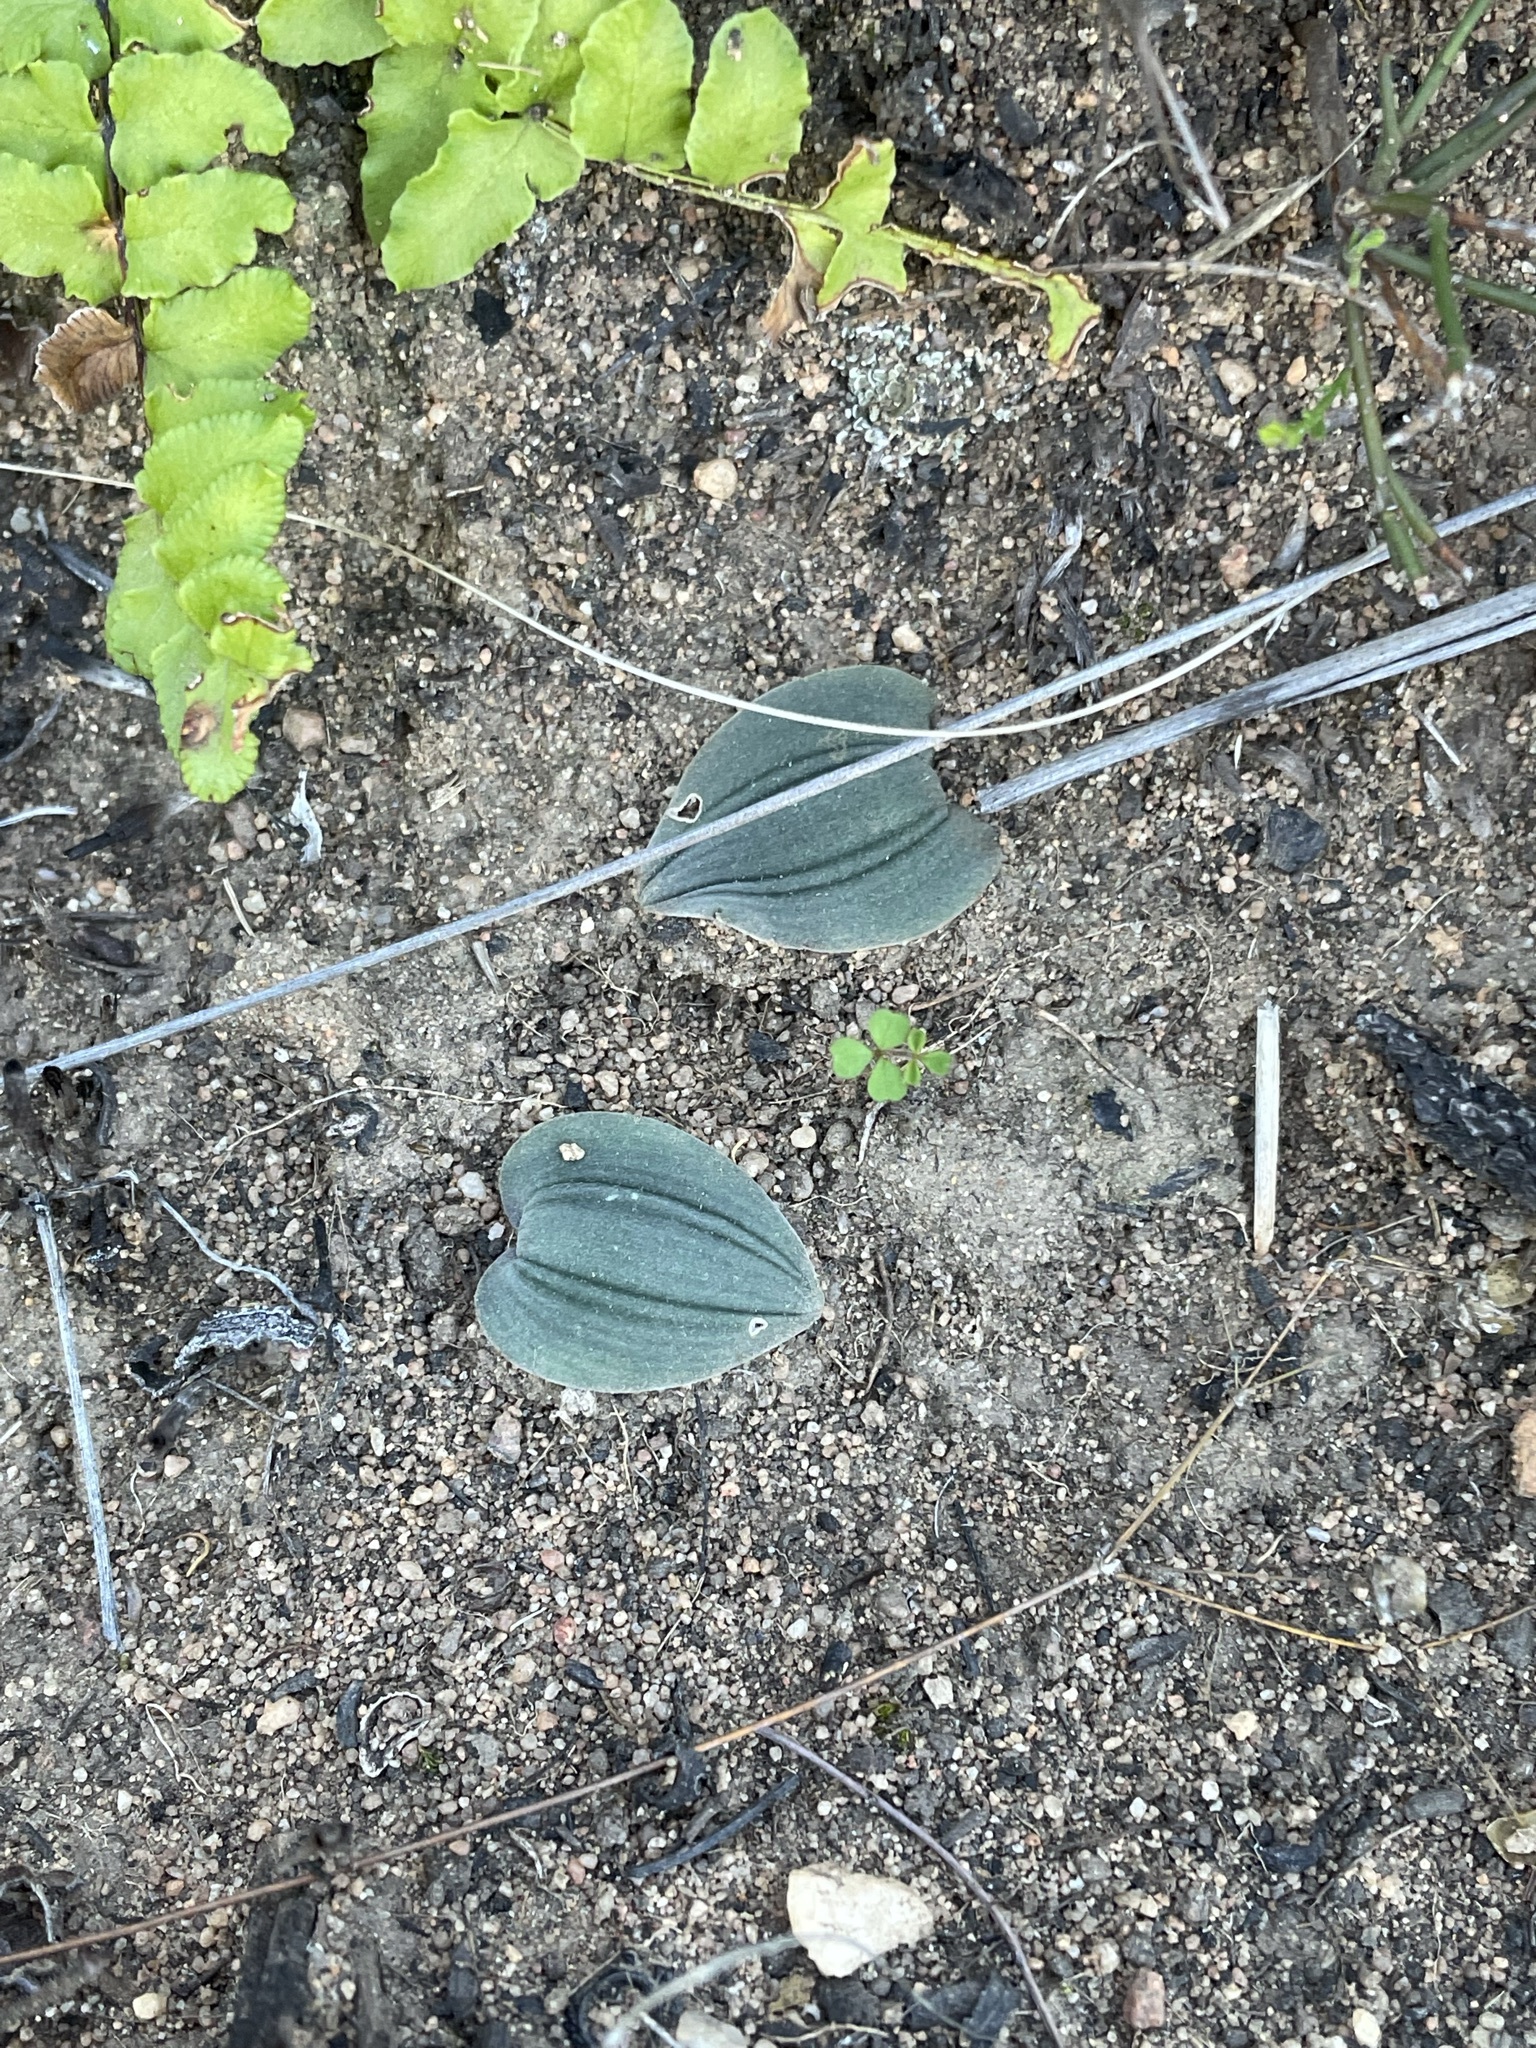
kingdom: Plantae
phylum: Tracheophyta
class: Liliopsida
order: Asparagales
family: Asparagaceae
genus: Drimia
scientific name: Drimia platyphylla
